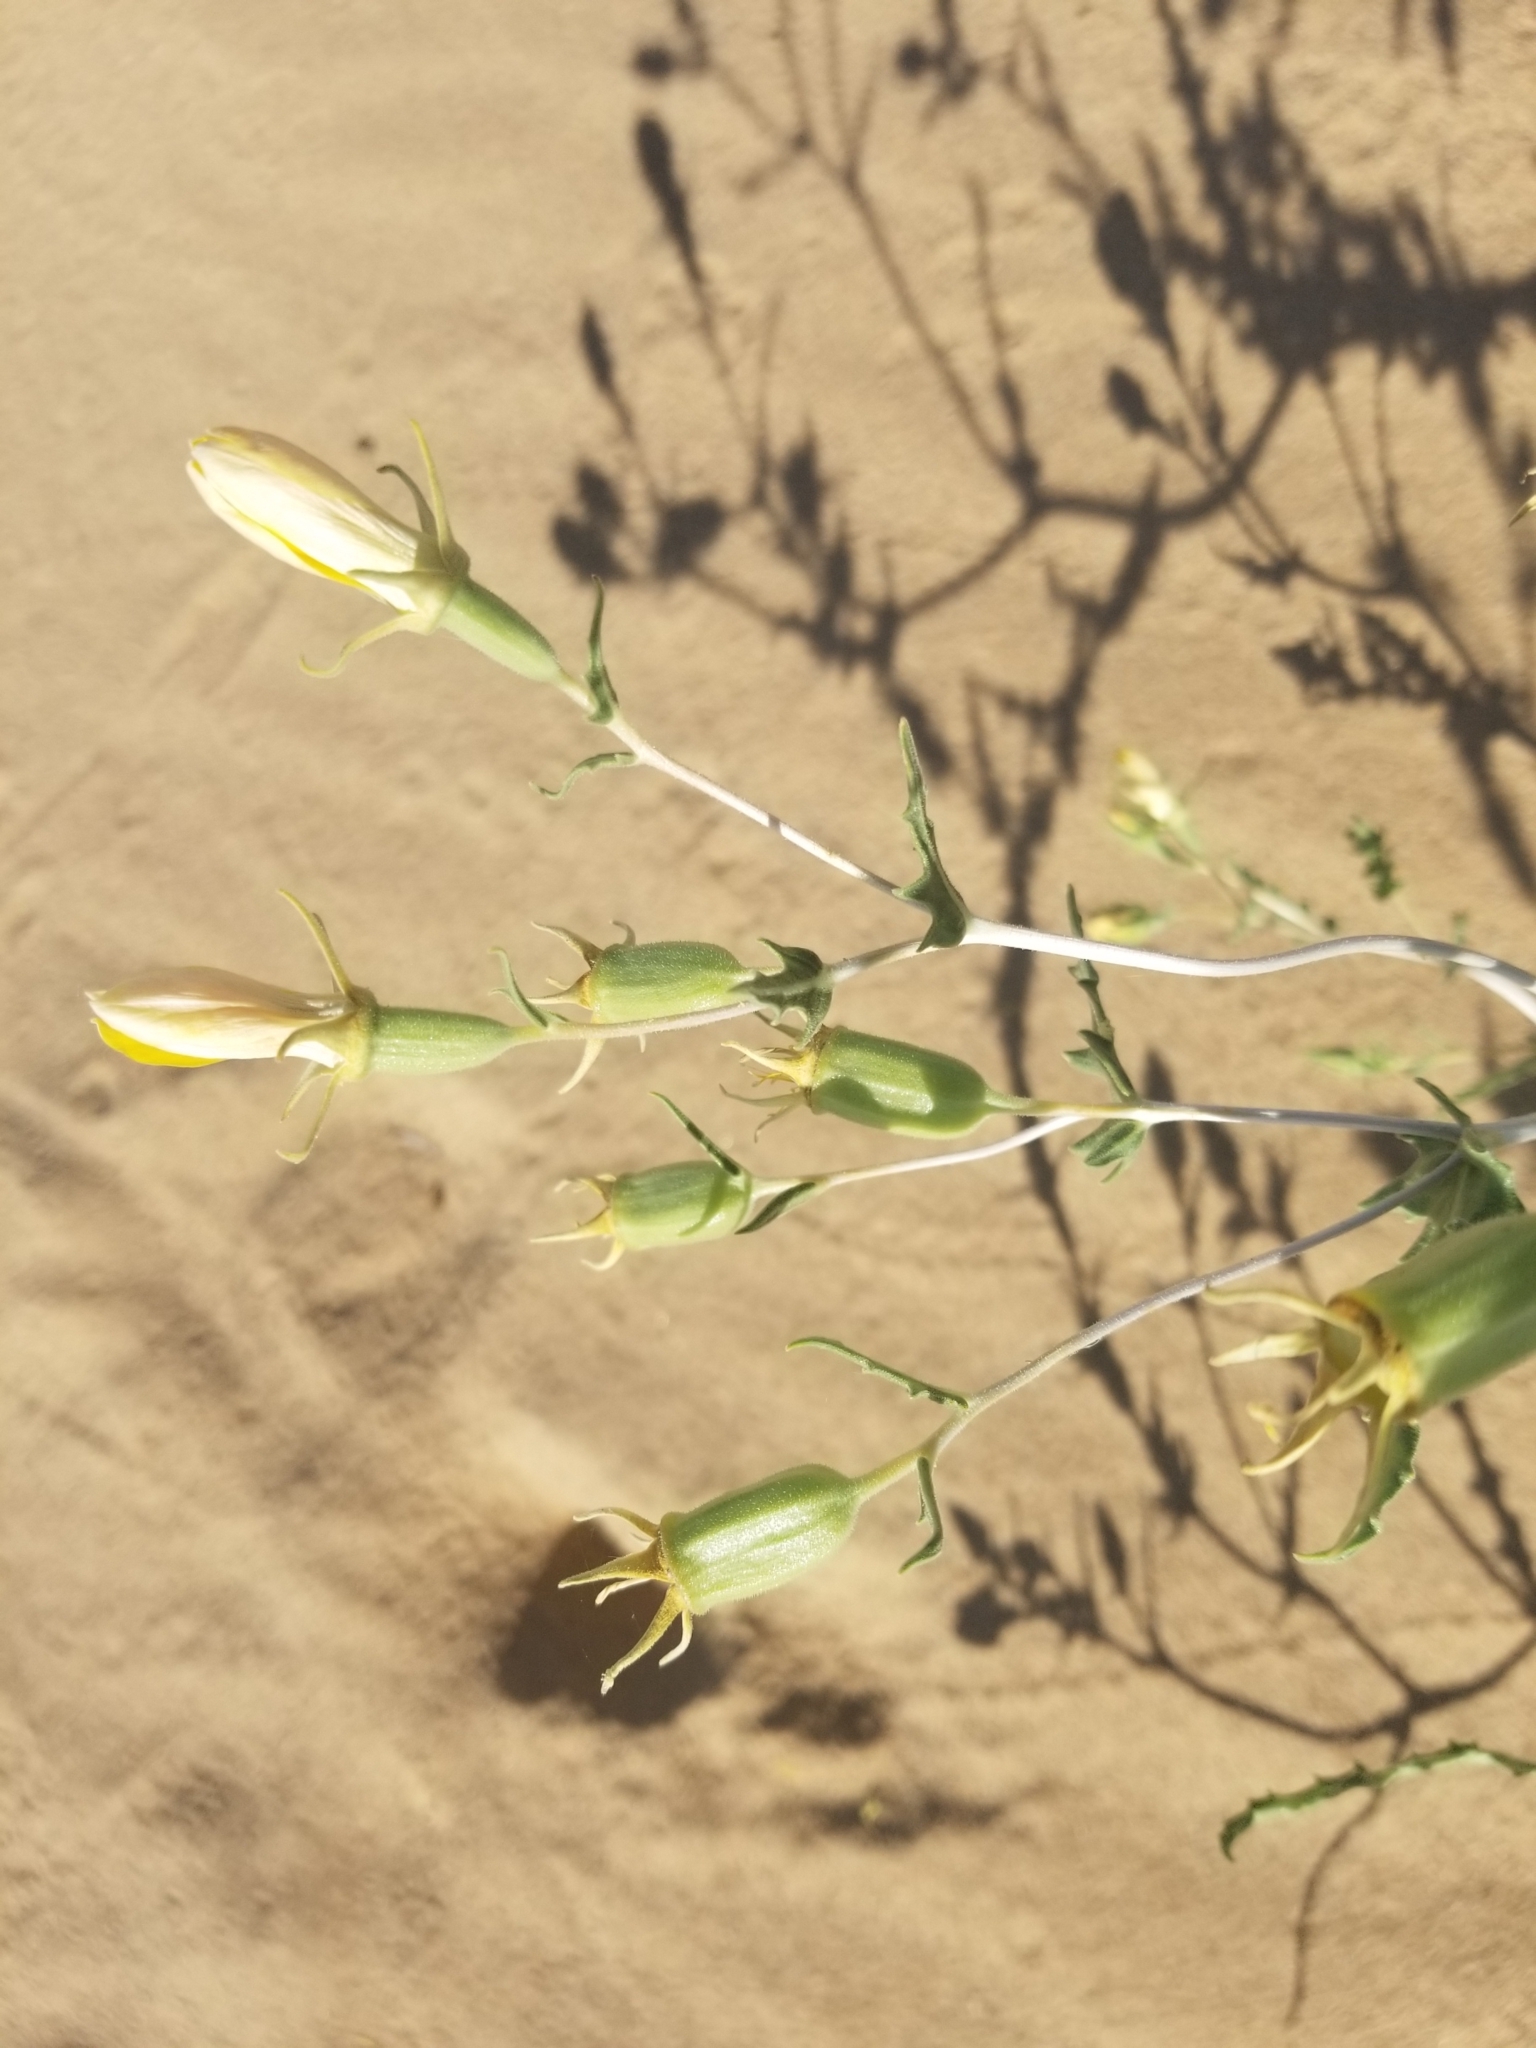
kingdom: Plantae
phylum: Tracheophyta
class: Magnoliopsida
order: Cornales
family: Loasaceae
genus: Mentzelia
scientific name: Mentzelia longiloba
